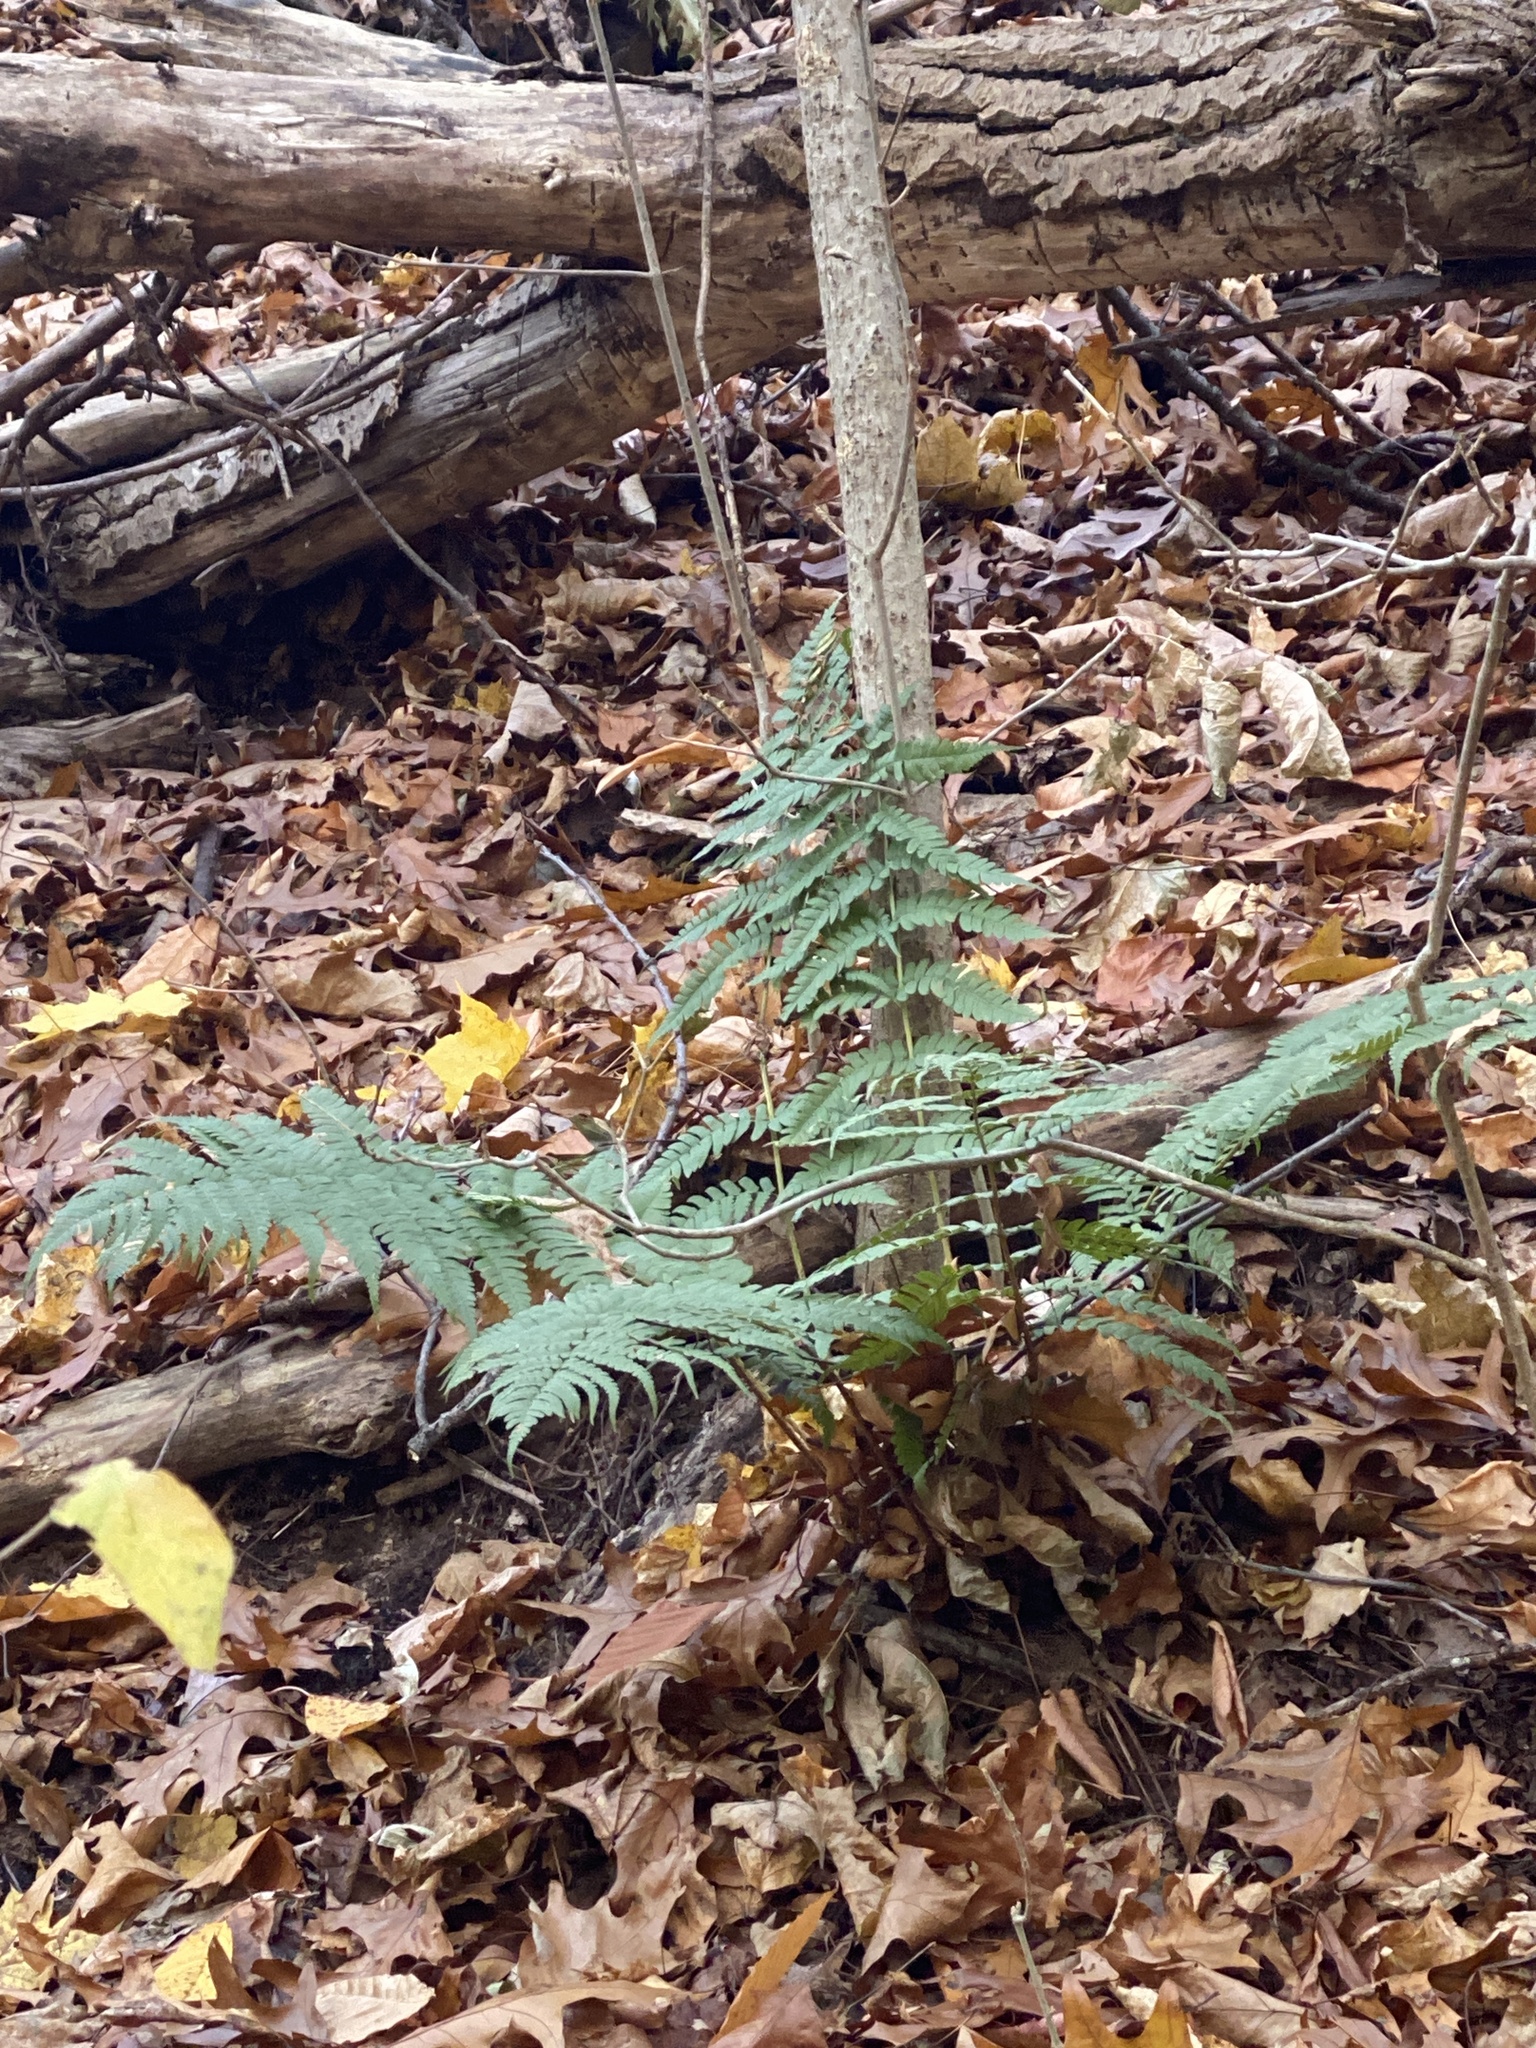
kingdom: Plantae
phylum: Tracheophyta
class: Polypodiopsida
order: Polypodiales
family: Dryopteridaceae
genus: Dryopteris
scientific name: Dryopteris marginalis
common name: Marginal wood fern
